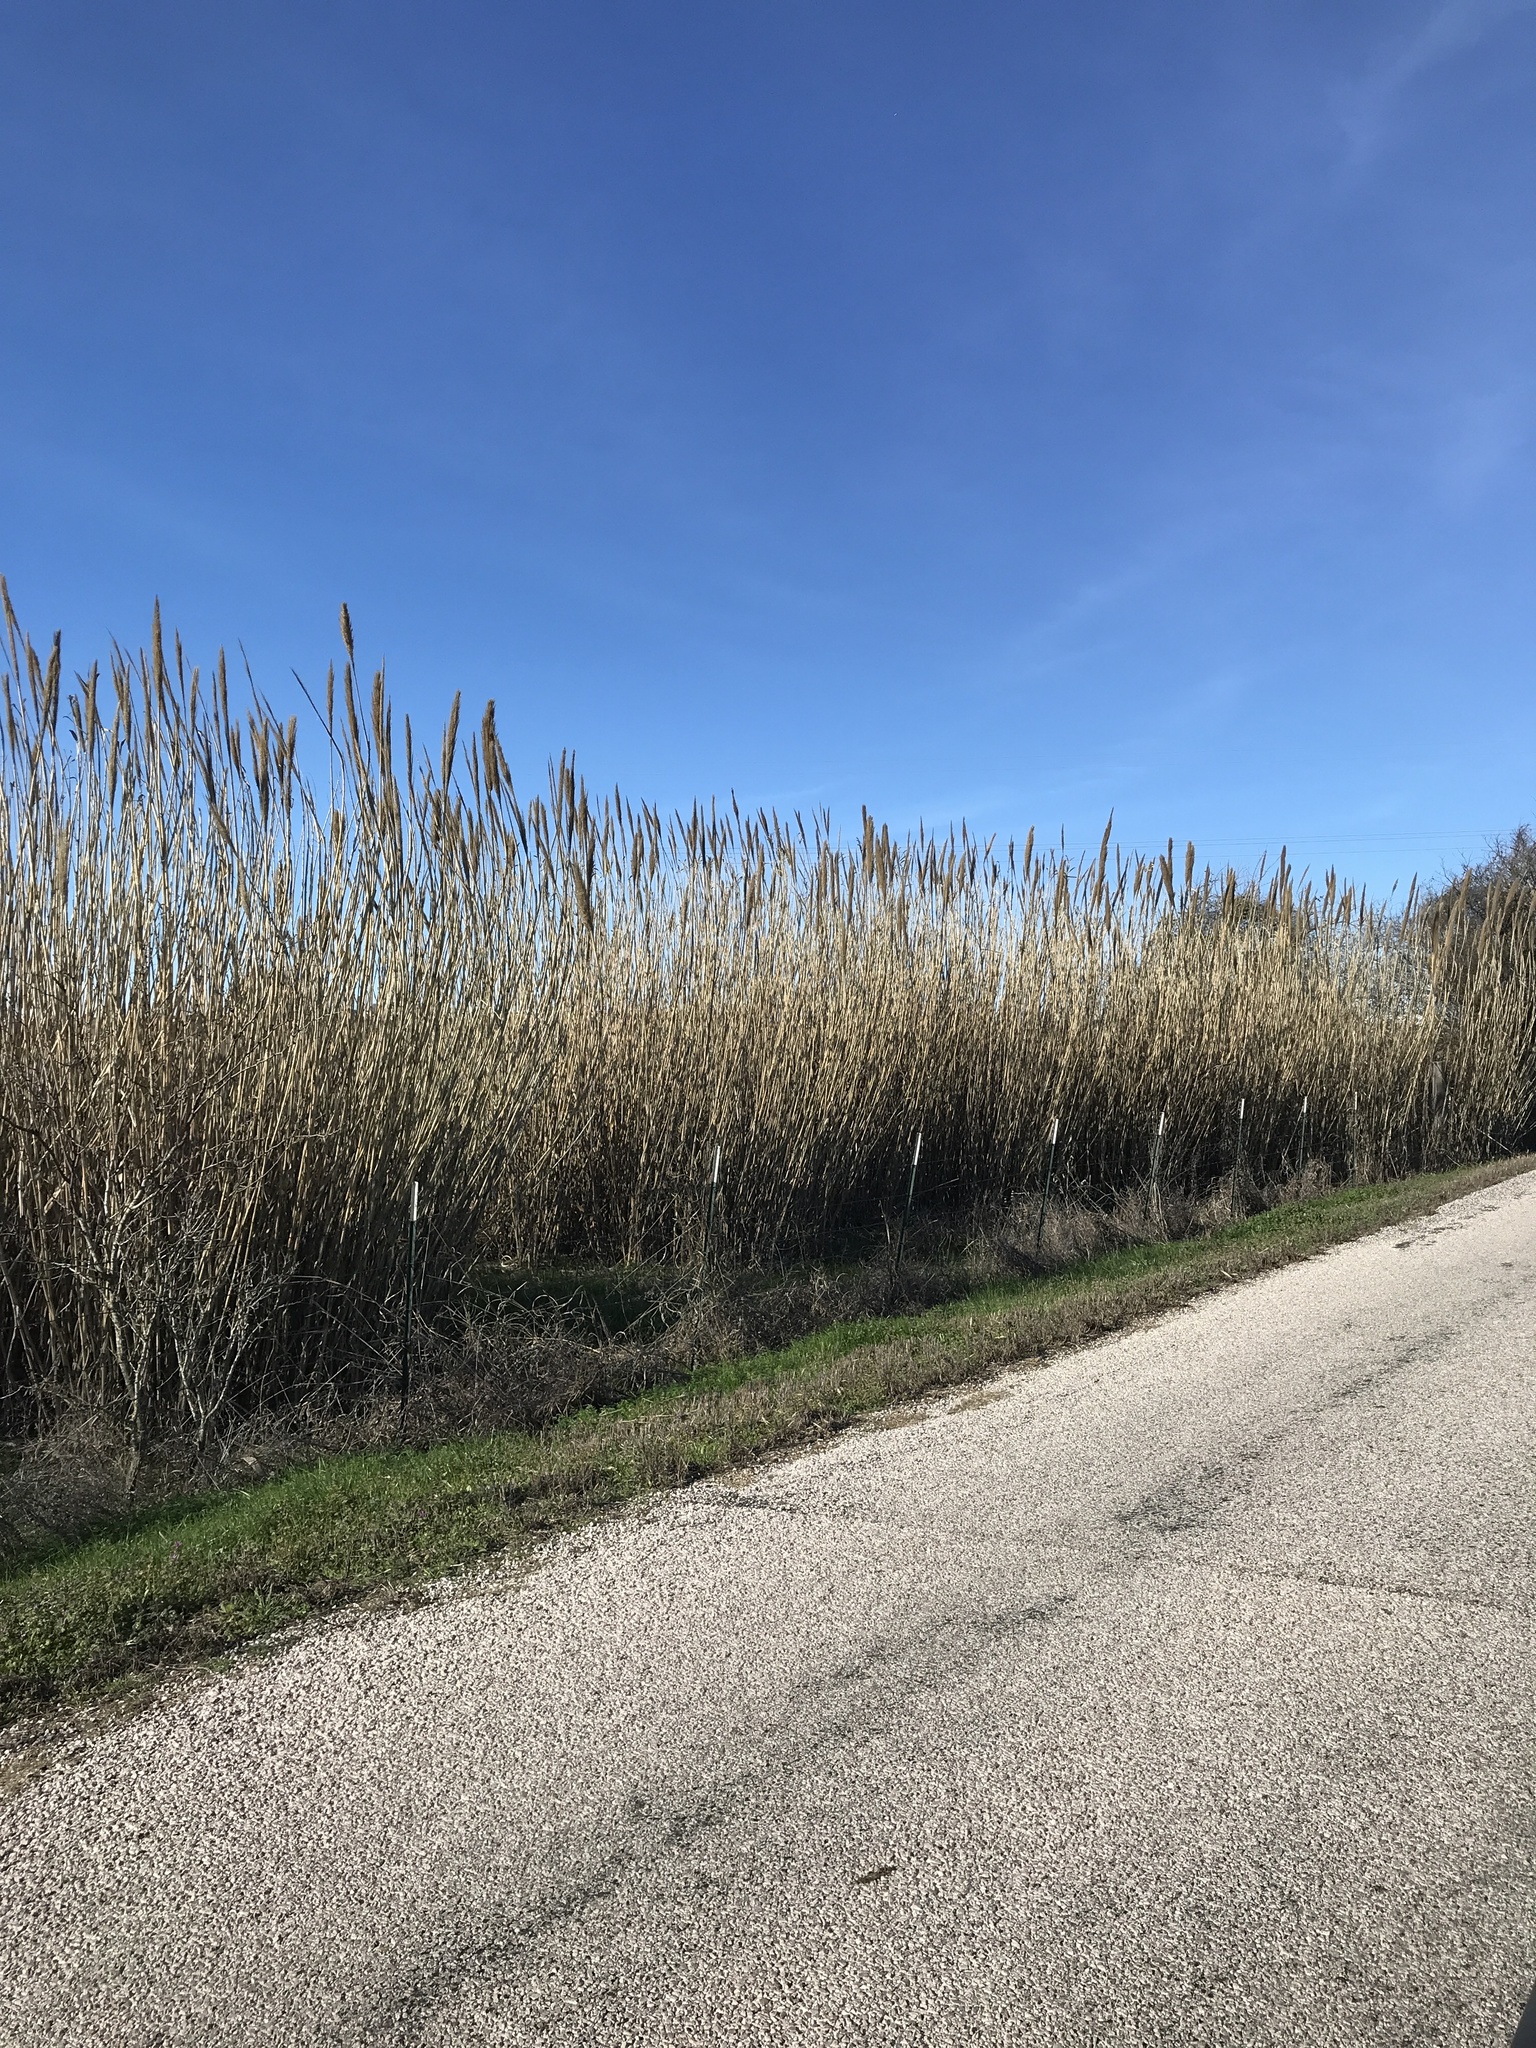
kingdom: Plantae
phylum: Tracheophyta
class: Liliopsida
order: Poales
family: Poaceae
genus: Arundo
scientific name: Arundo donax
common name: Giant reed
